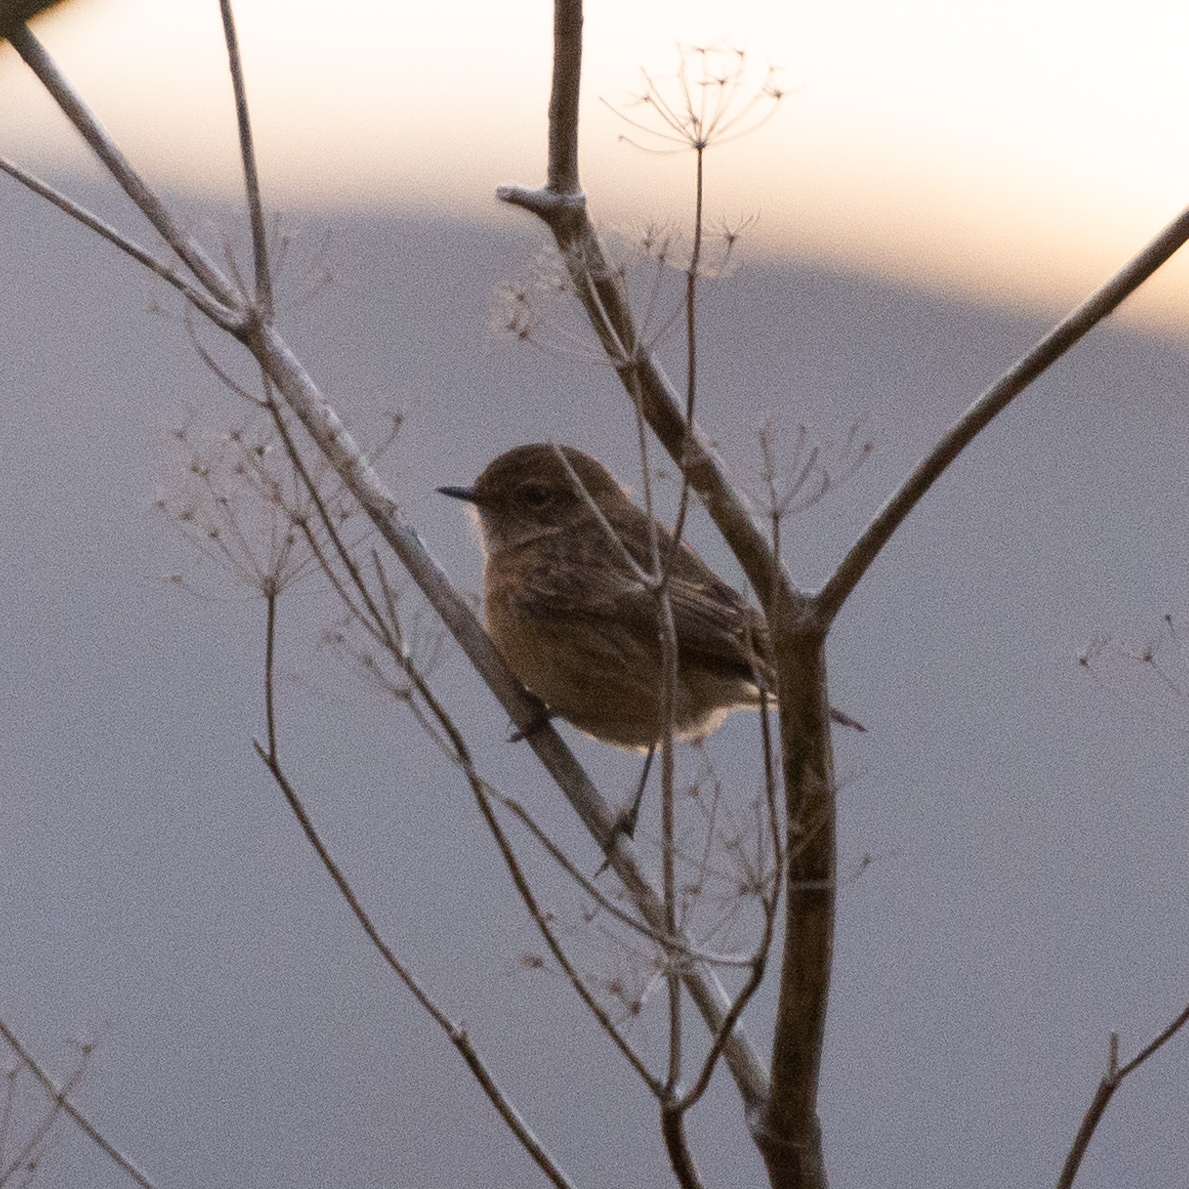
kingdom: Animalia
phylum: Chordata
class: Aves
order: Passeriformes
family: Muscicapidae
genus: Saxicola
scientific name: Saxicola rubicola
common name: European stonechat
